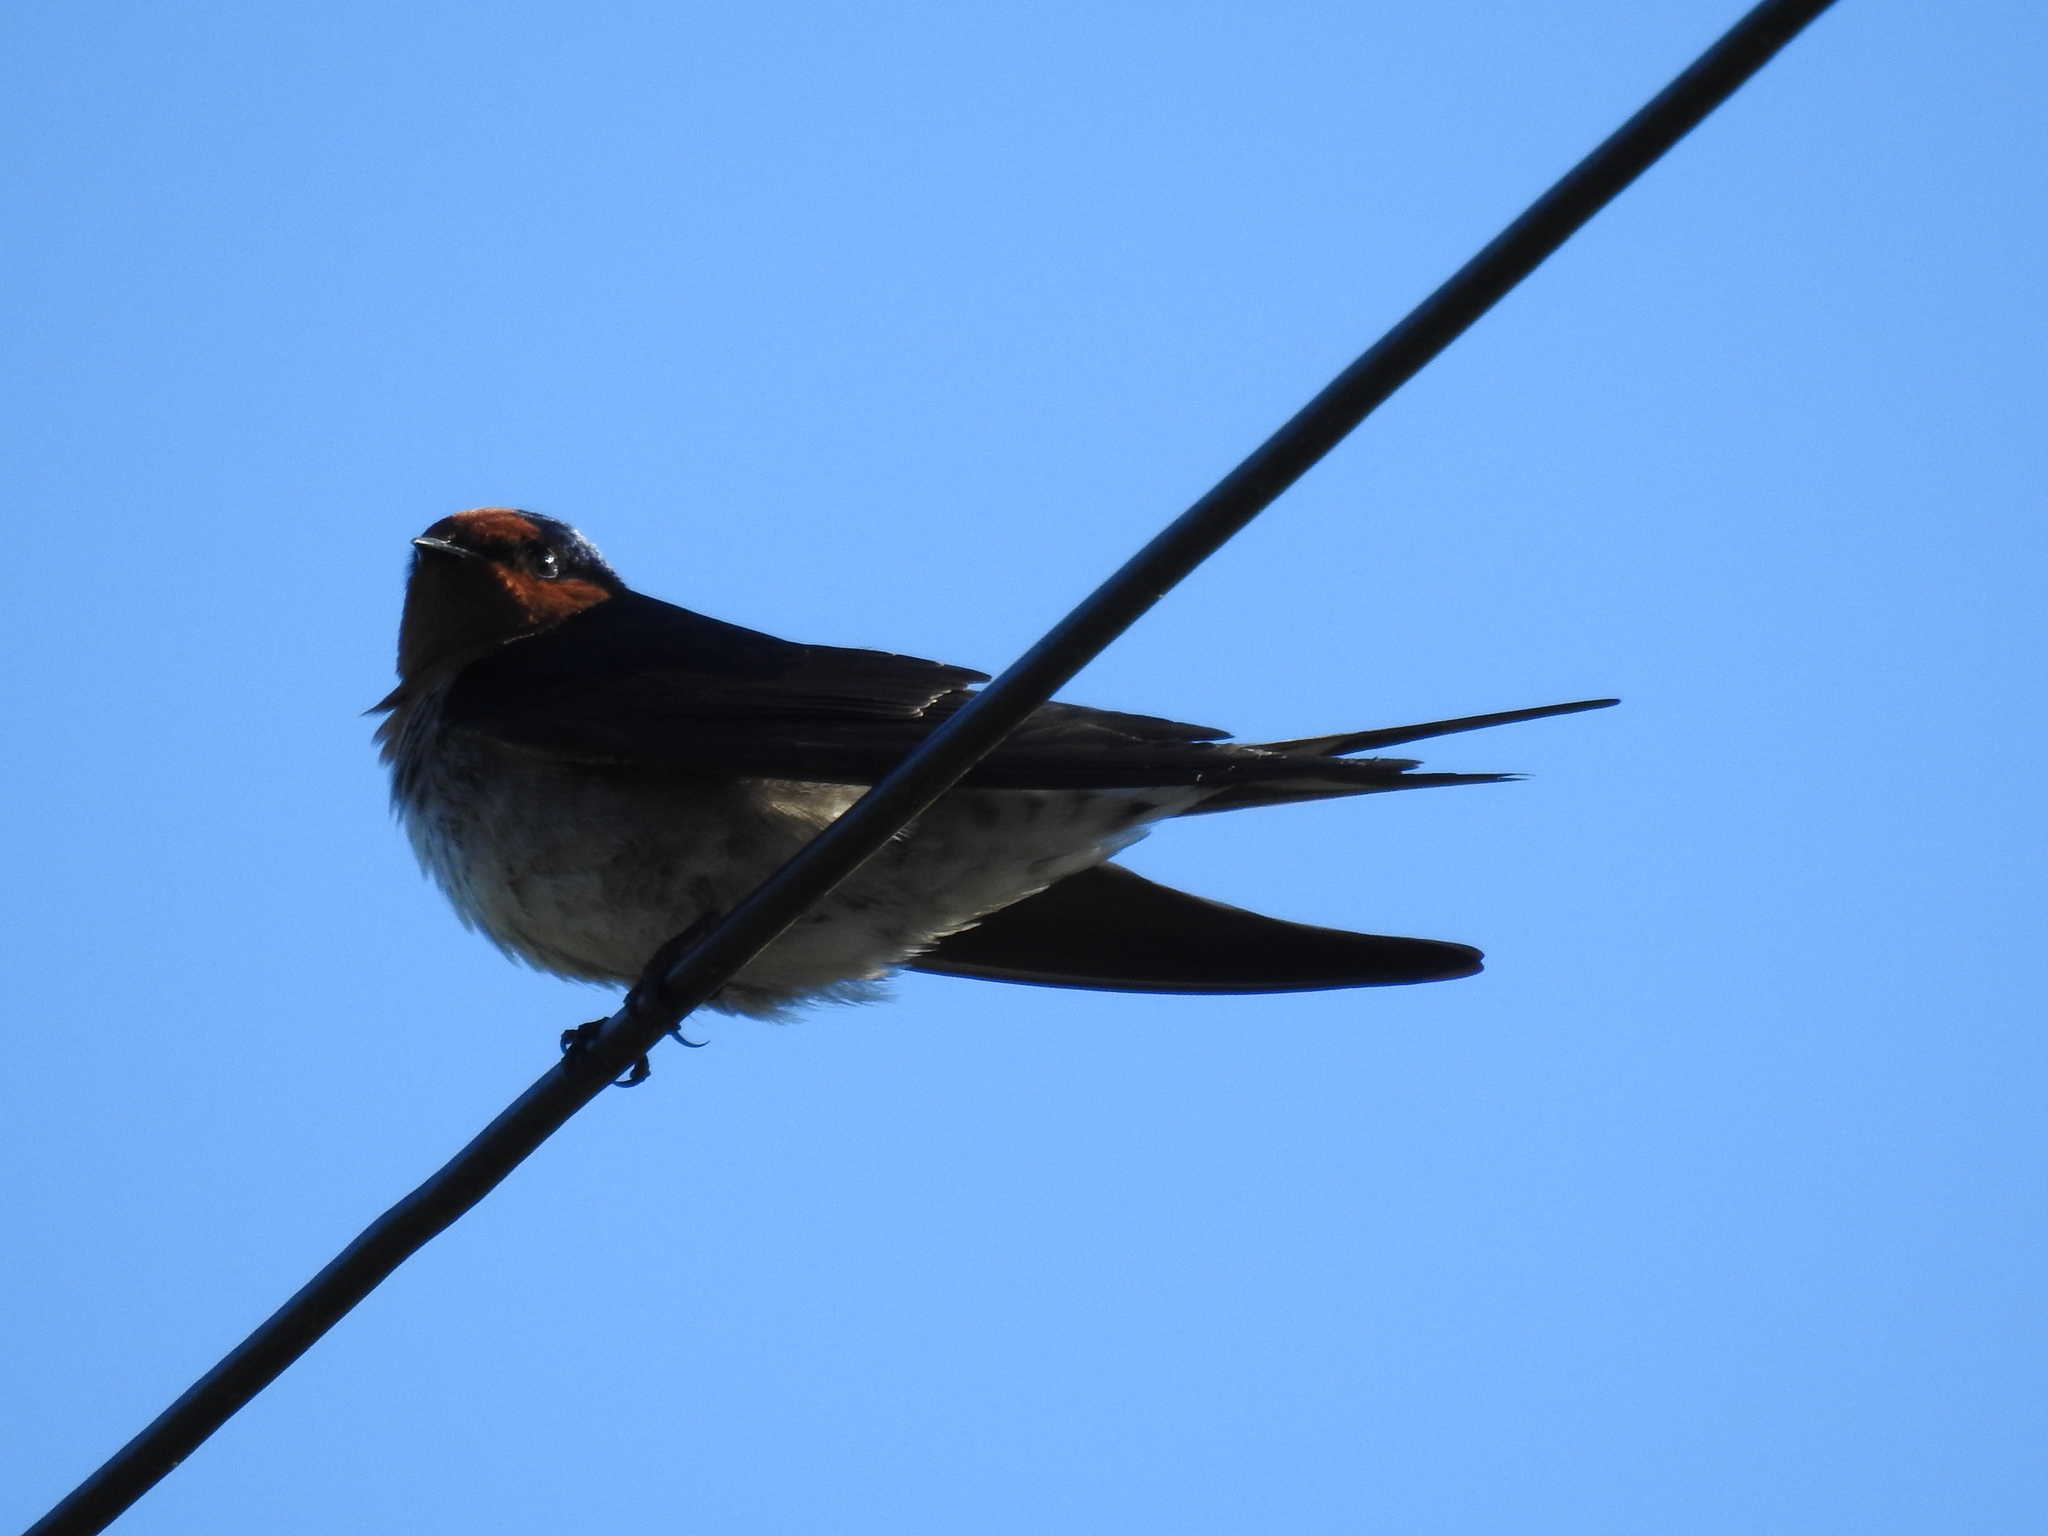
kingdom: Animalia
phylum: Chordata
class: Aves
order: Passeriformes
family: Hirundinidae
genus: Hirundo
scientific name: Hirundo neoxena
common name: Welcome swallow
